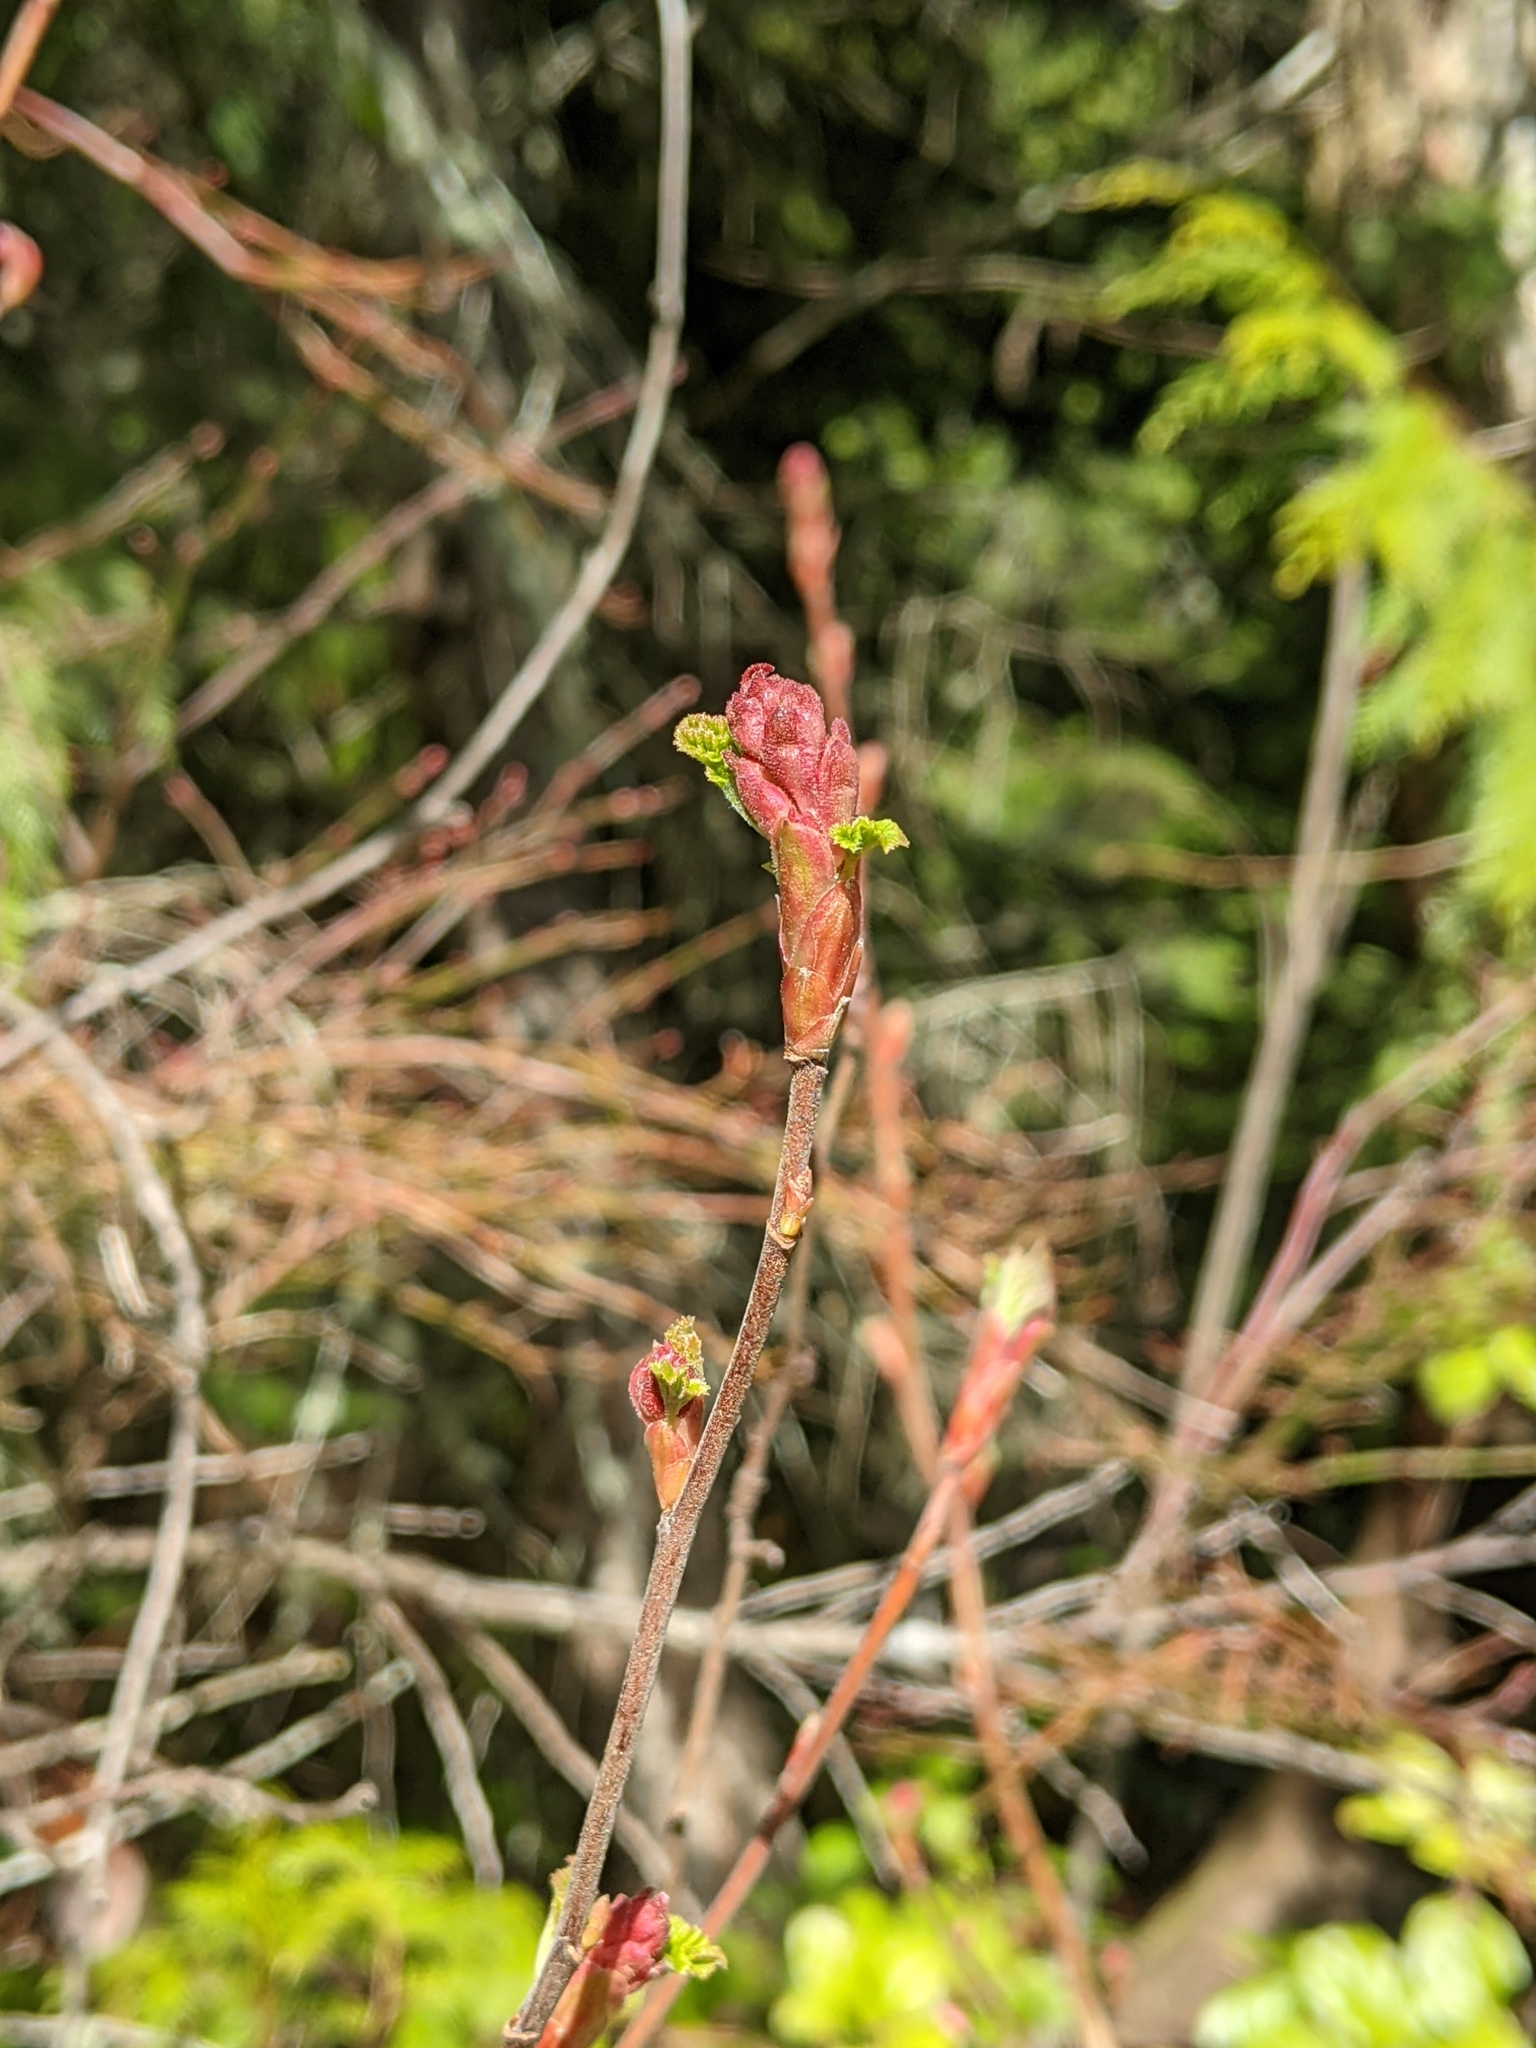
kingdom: Plantae
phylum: Tracheophyta
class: Magnoliopsida
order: Saxifragales
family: Grossulariaceae
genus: Ribes
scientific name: Ribes sanguineum
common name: Flowering currant
